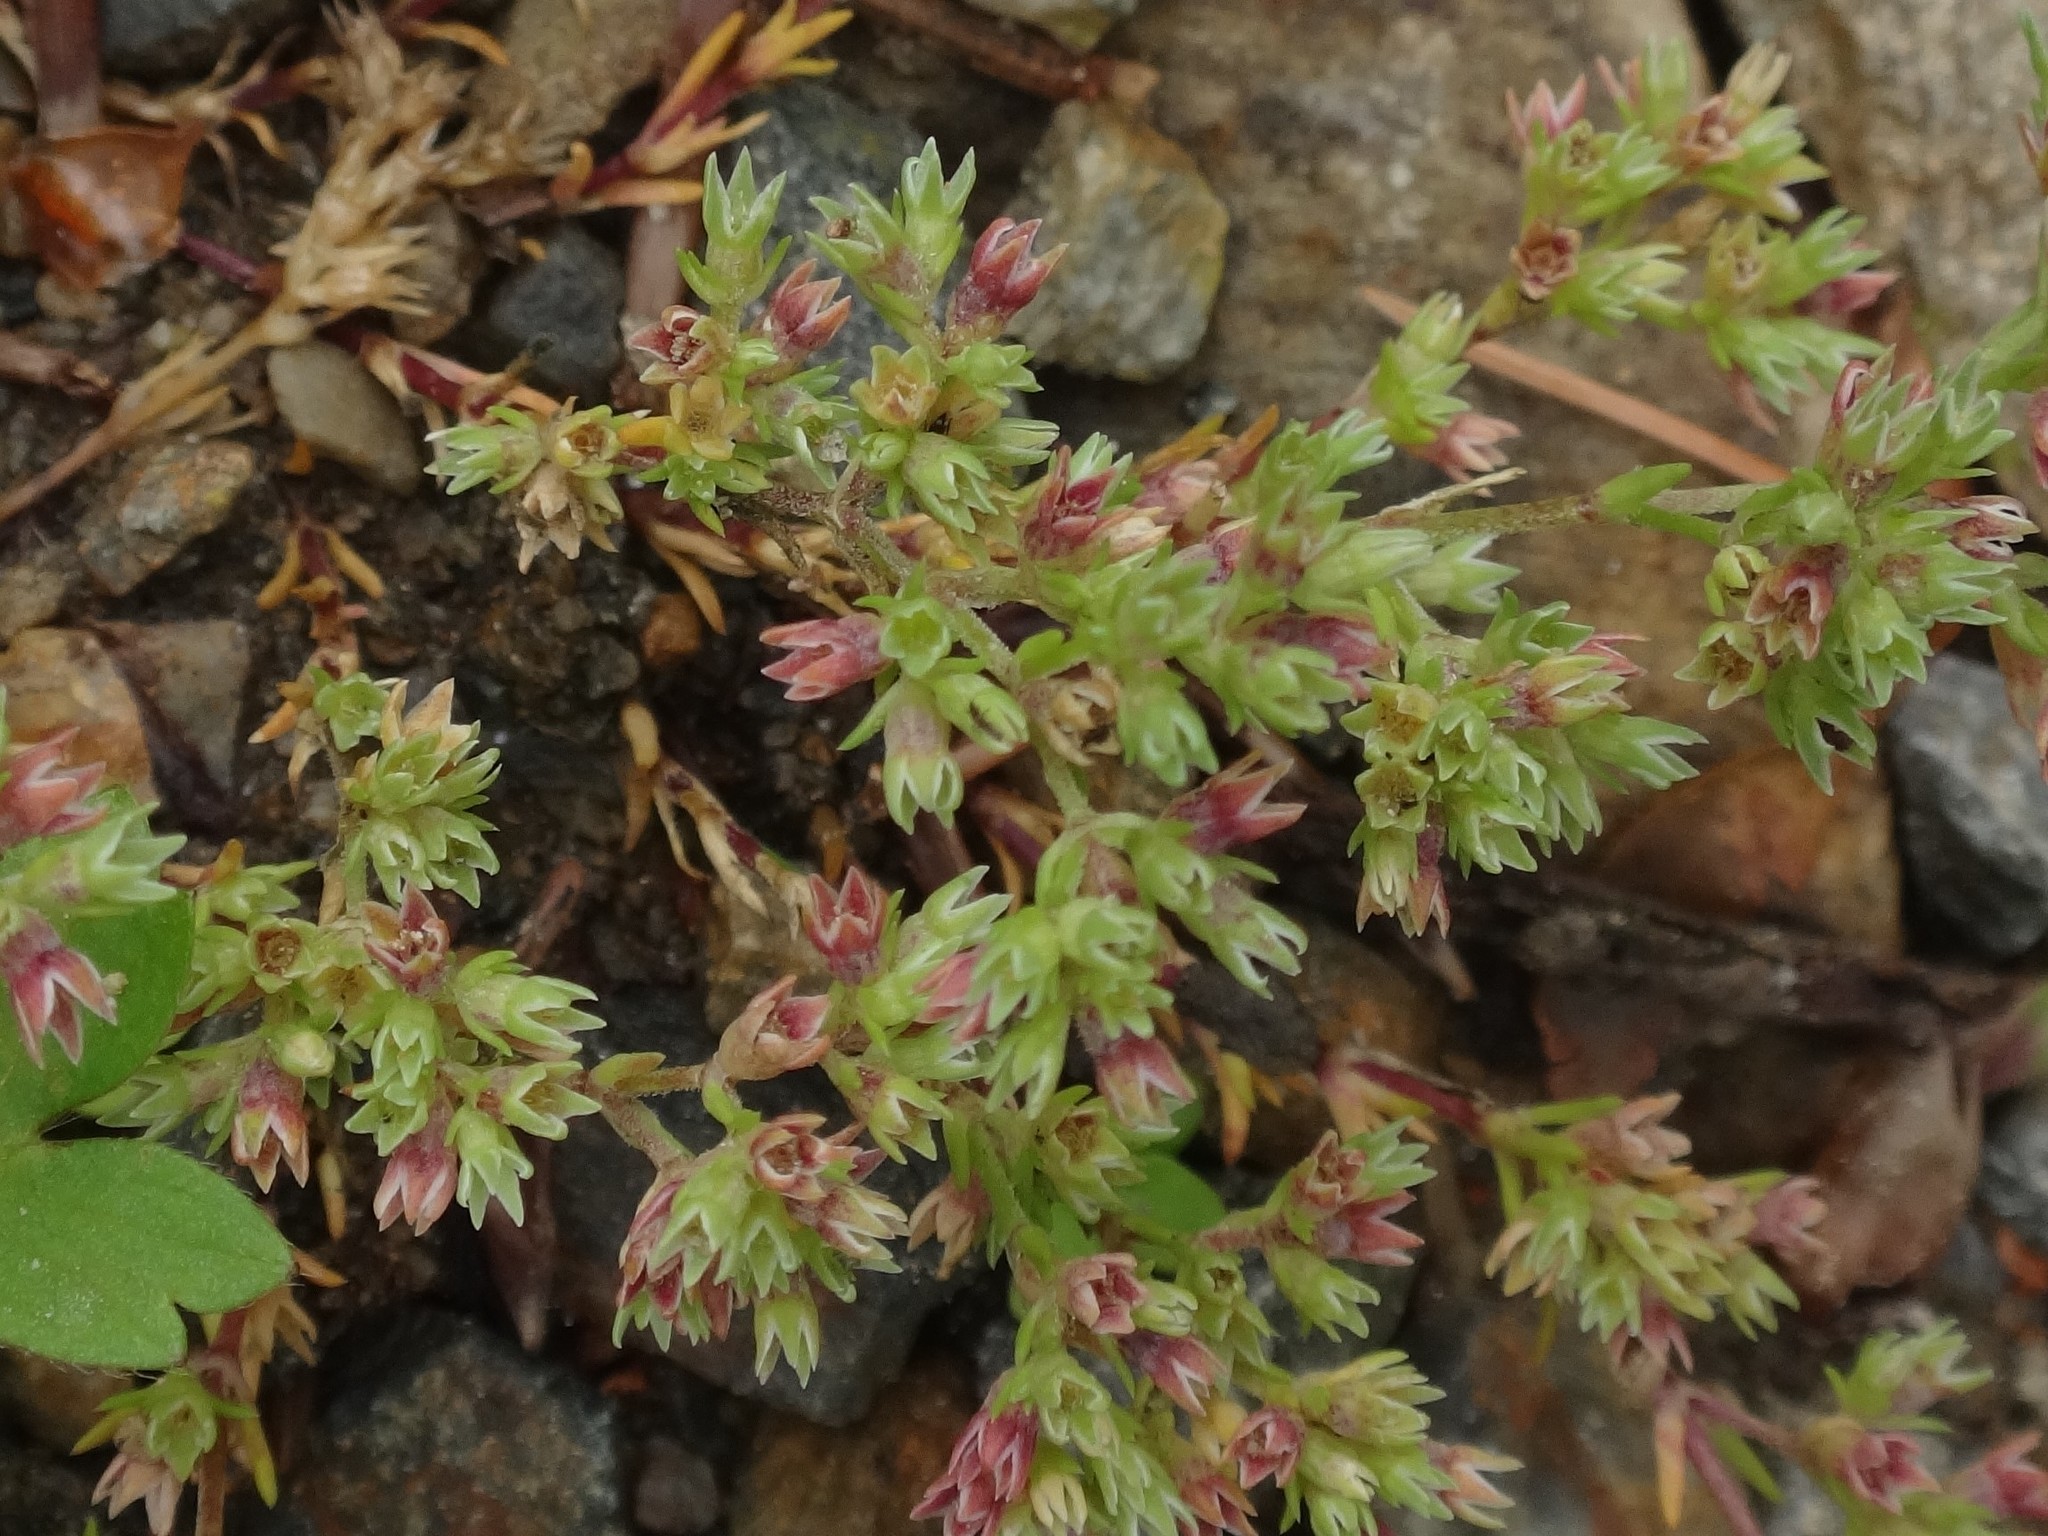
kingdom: Plantae
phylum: Tracheophyta
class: Magnoliopsida
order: Caryophyllales
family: Caryophyllaceae
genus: Scleranthus
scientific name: Scleranthus annuus
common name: Annual knawel
